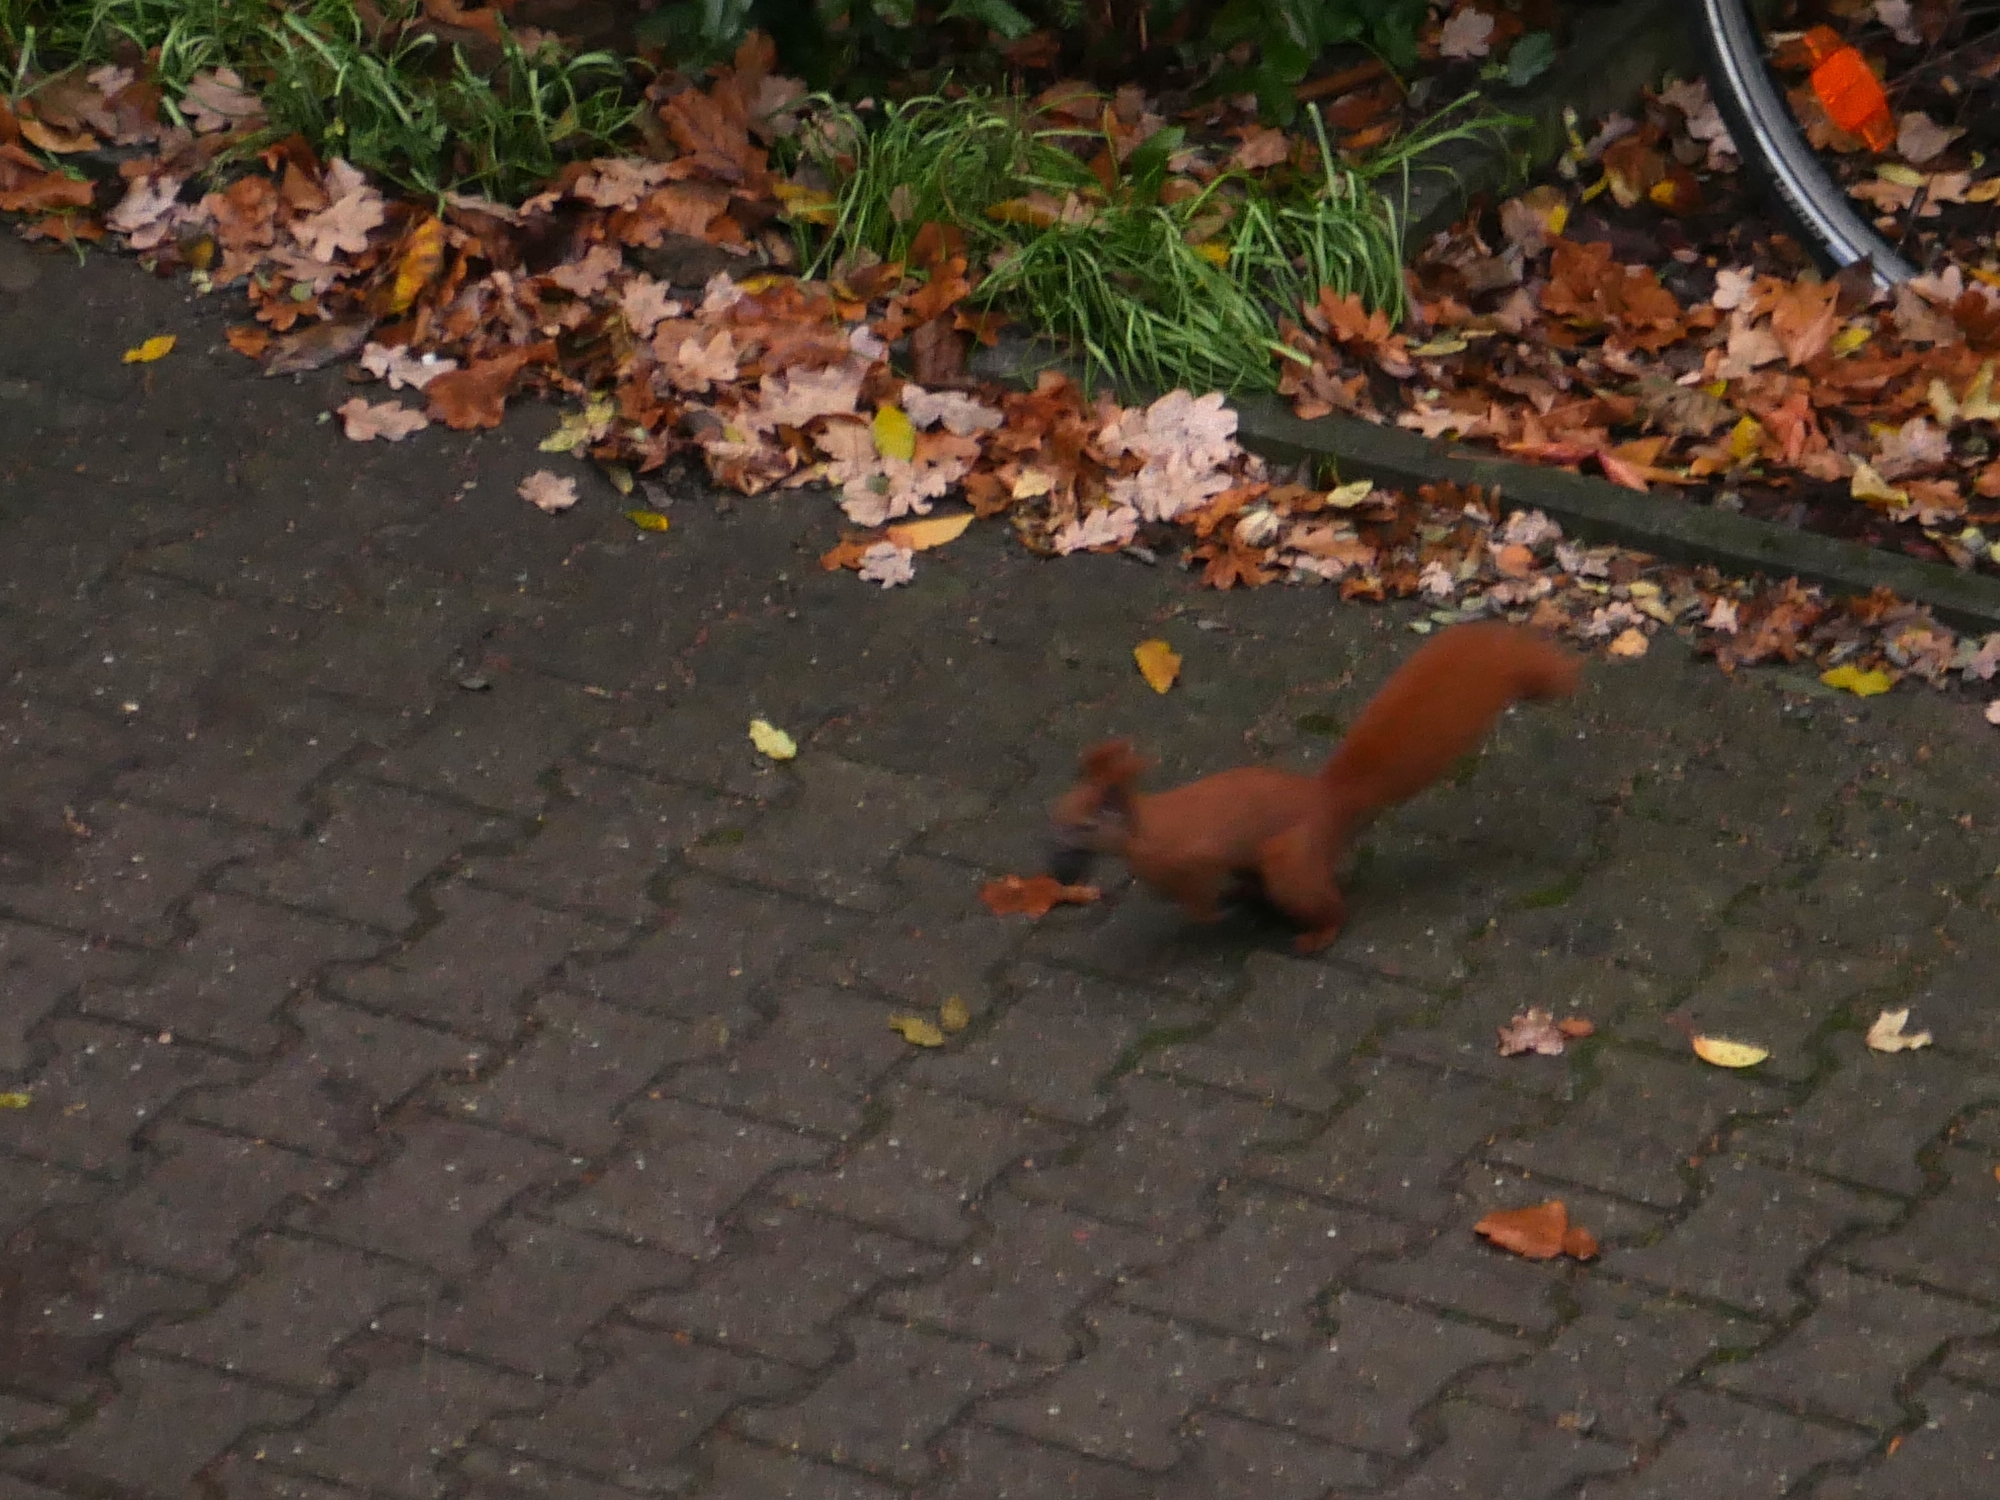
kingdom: Animalia
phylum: Chordata
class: Mammalia
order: Rodentia
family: Sciuridae
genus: Sciurus
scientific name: Sciurus vulgaris
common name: Eurasian red squirrel
